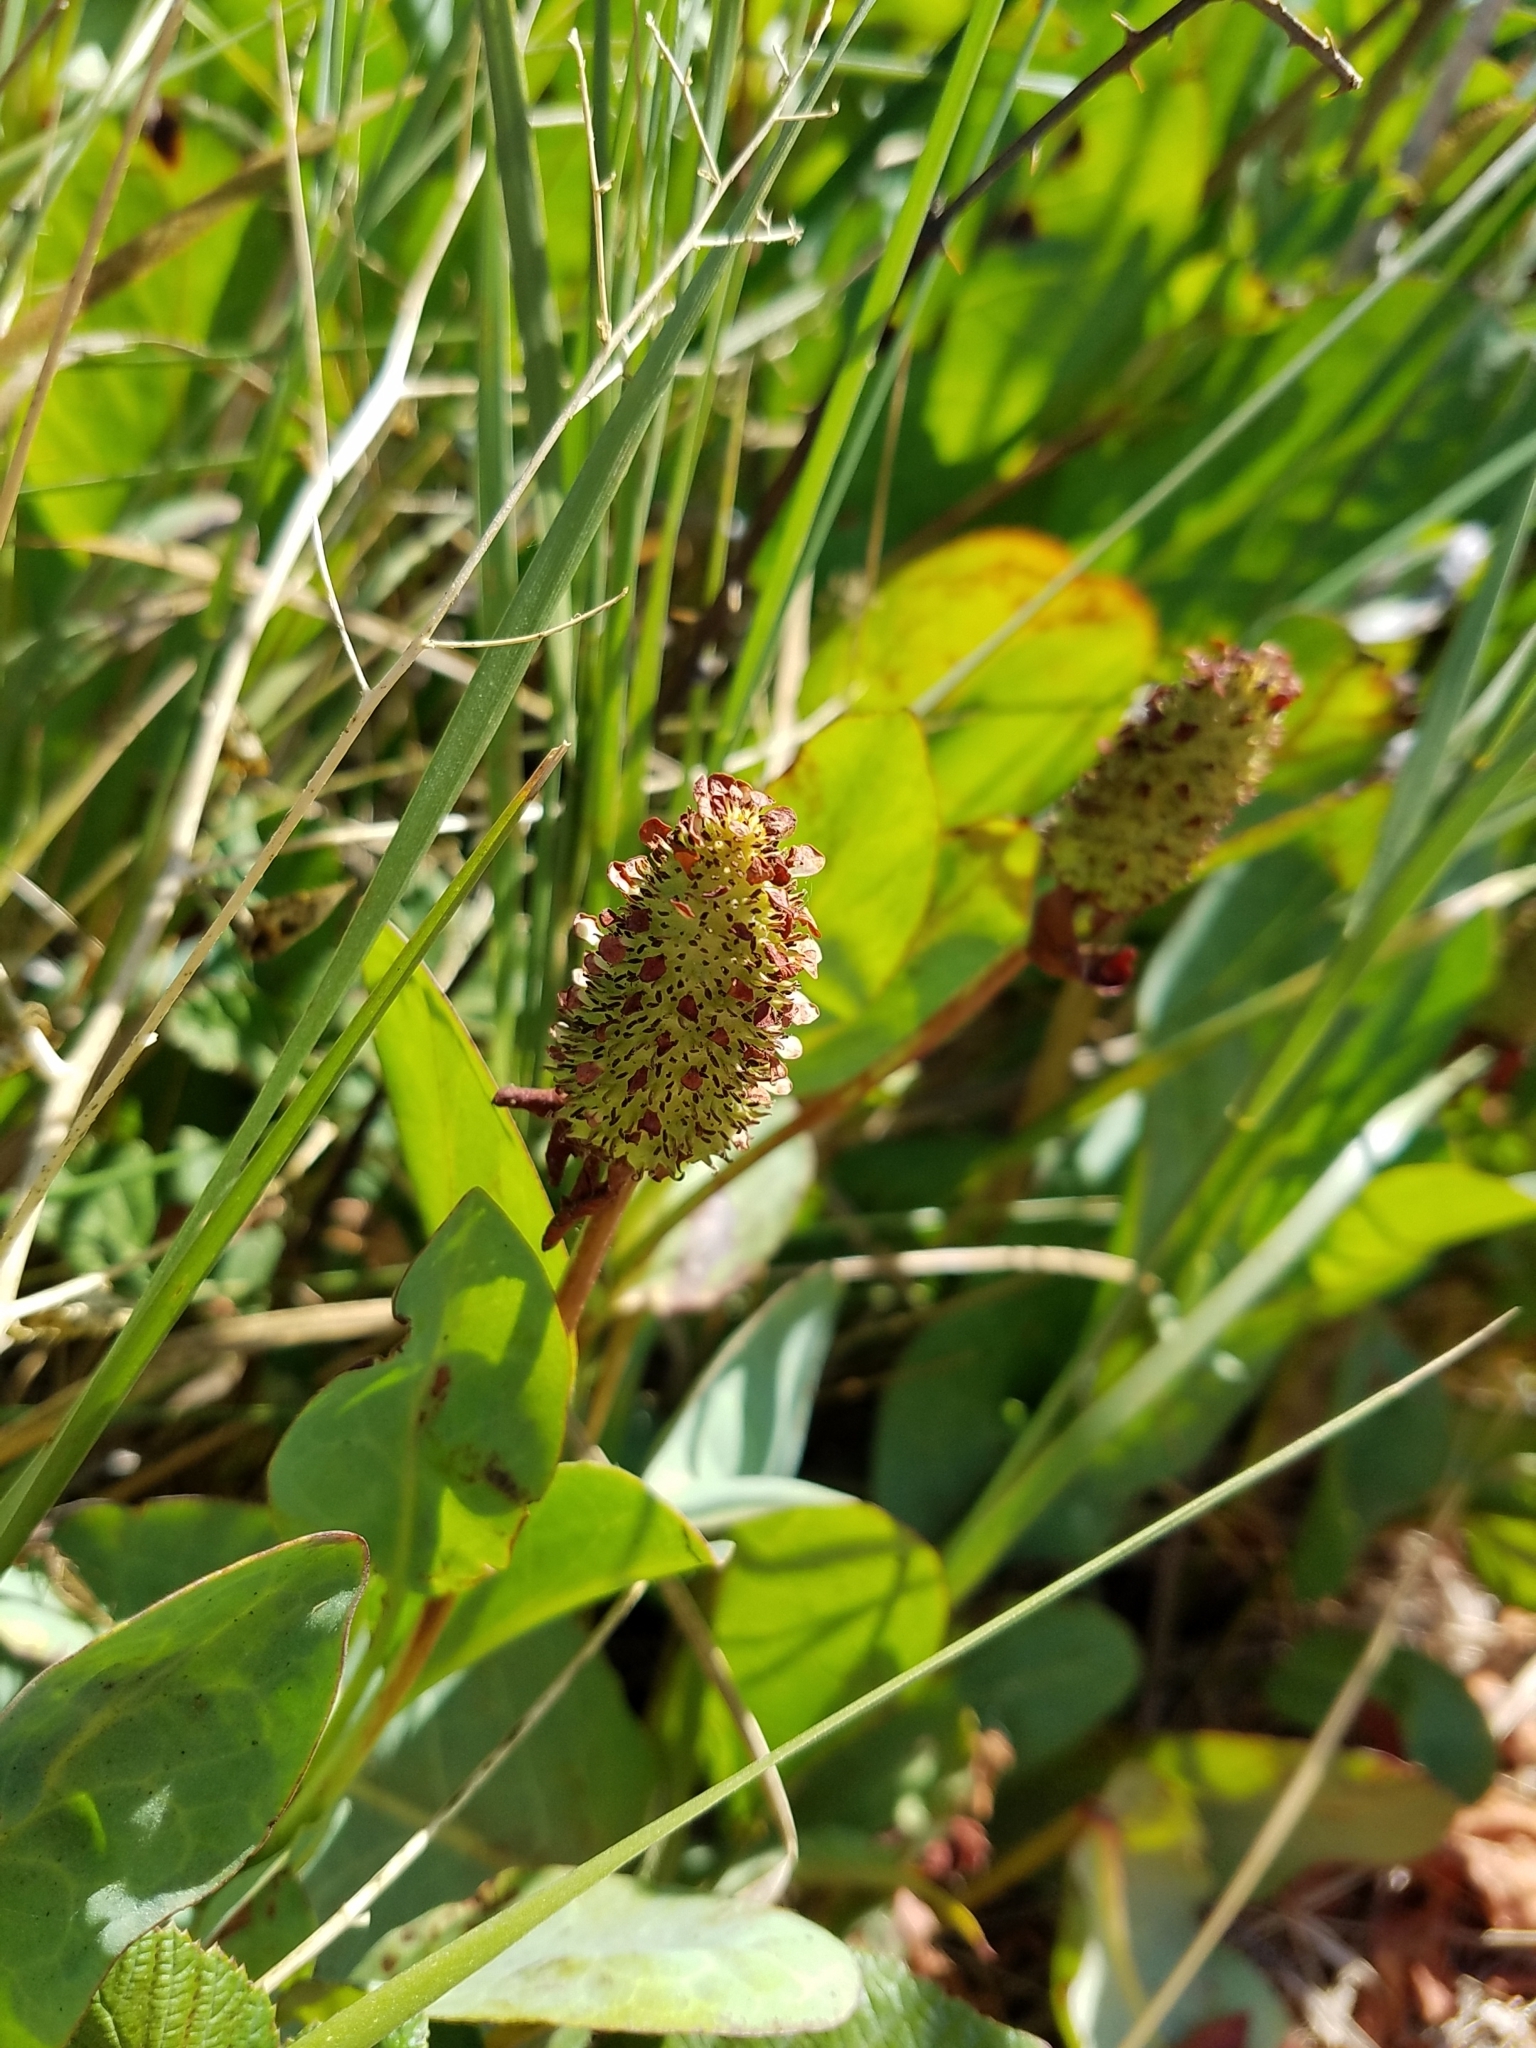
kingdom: Plantae
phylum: Tracheophyta
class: Magnoliopsida
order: Piperales
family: Saururaceae
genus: Anemopsis
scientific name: Anemopsis californica
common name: Apache-beads
